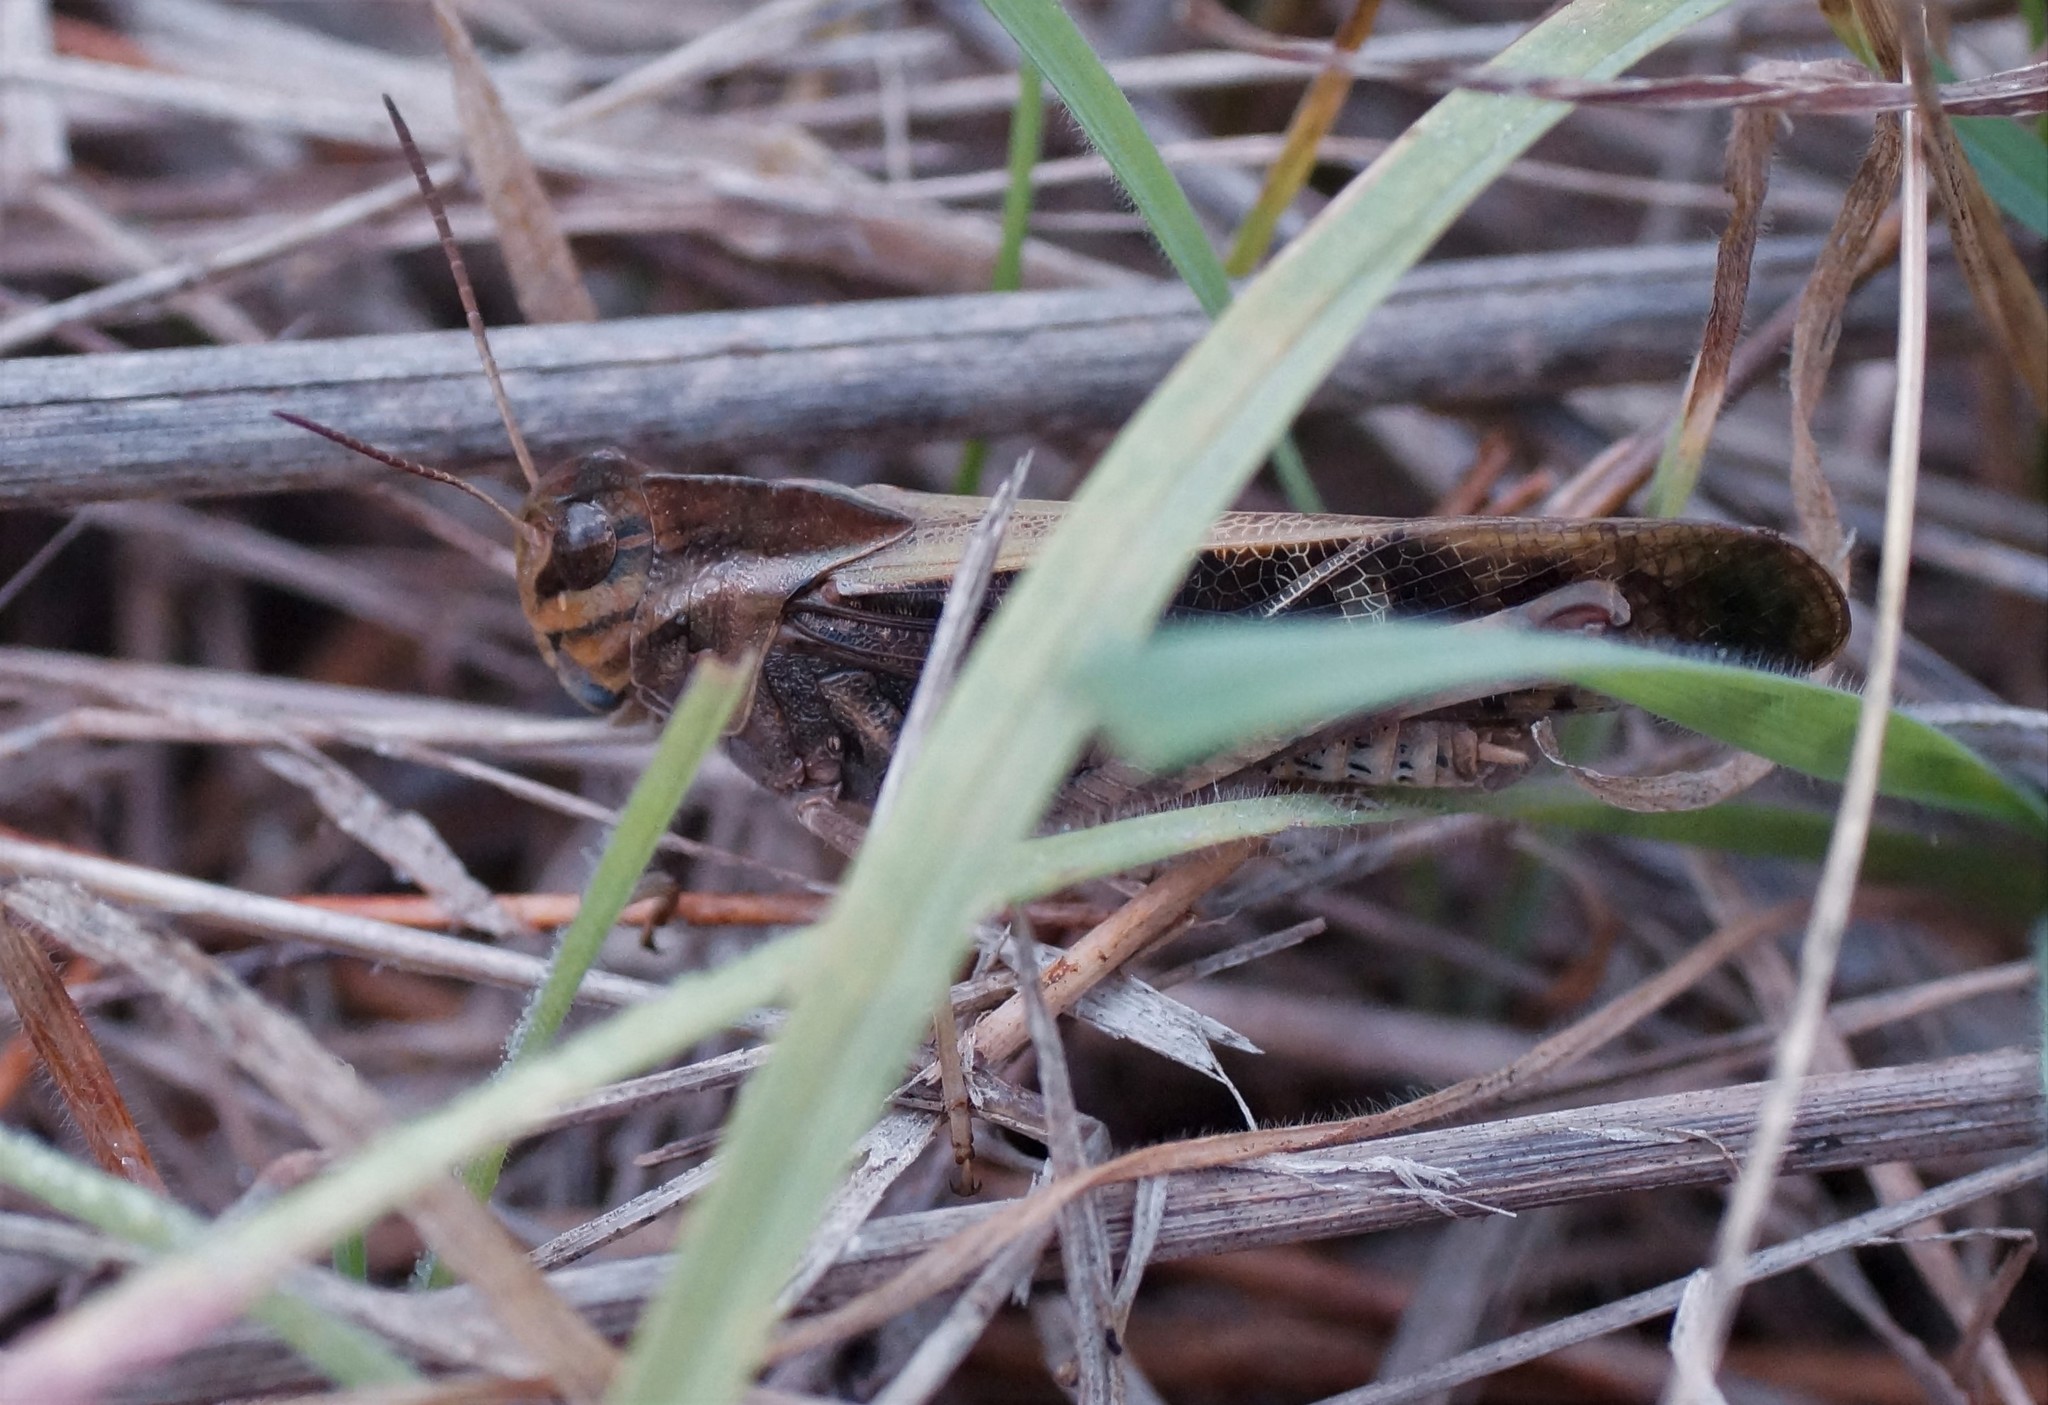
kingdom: Animalia
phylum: Arthropoda
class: Insecta
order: Orthoptera
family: Acrididae
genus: Gastrimargus
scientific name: Gastrimargus musicus
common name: Yellow-winged locust
